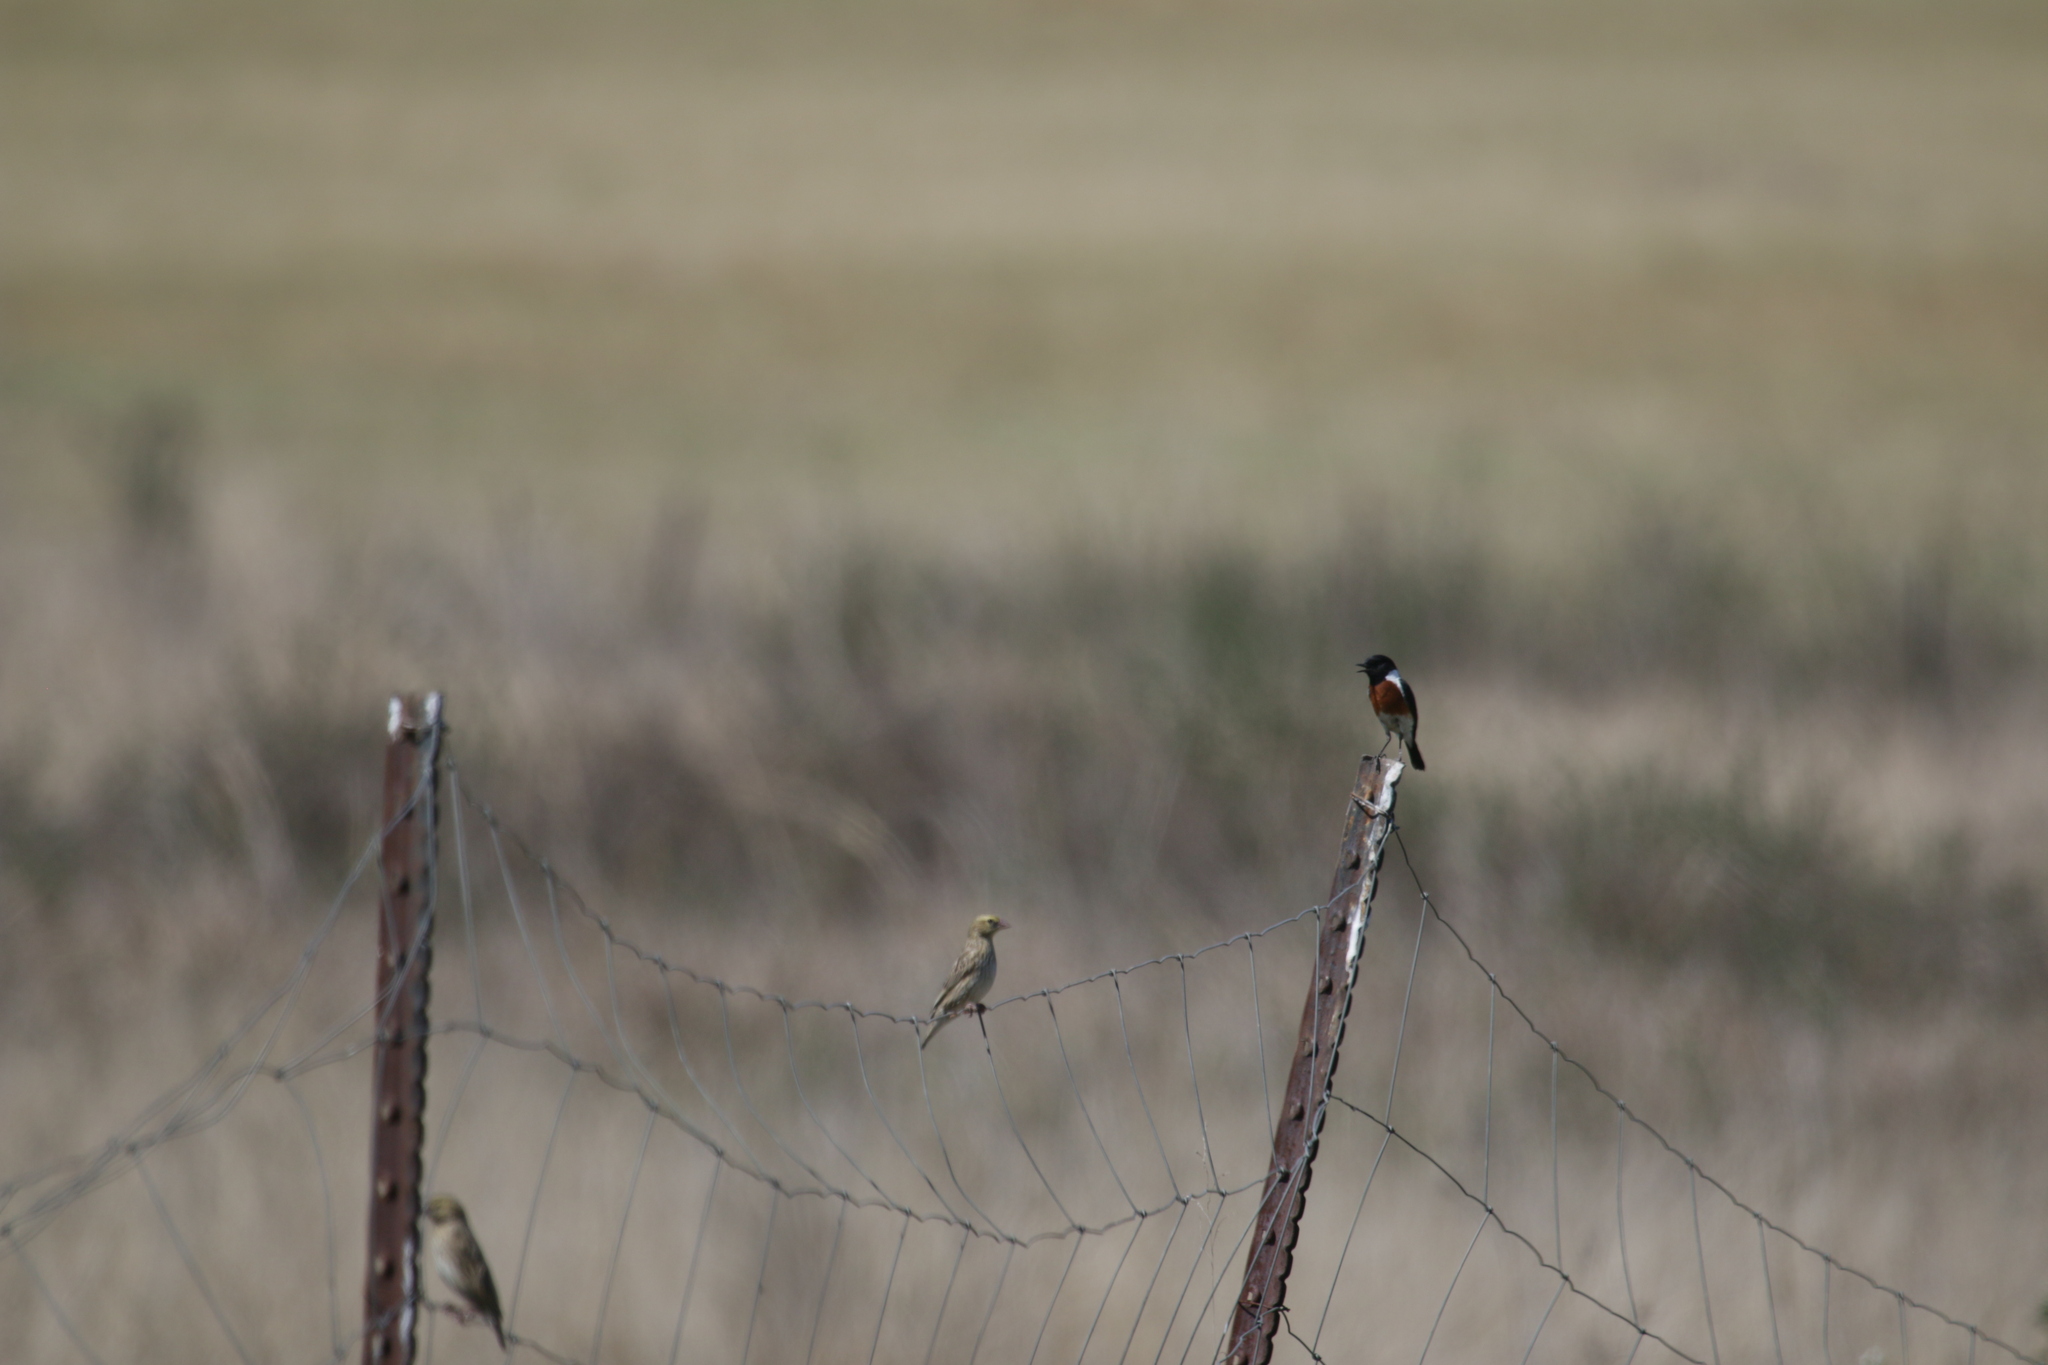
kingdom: Animalia
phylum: Chordata
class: Aves
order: Passeriformes
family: Muscicapidae
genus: Saxicola
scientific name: Saxicola torquatus
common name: African stonechat
